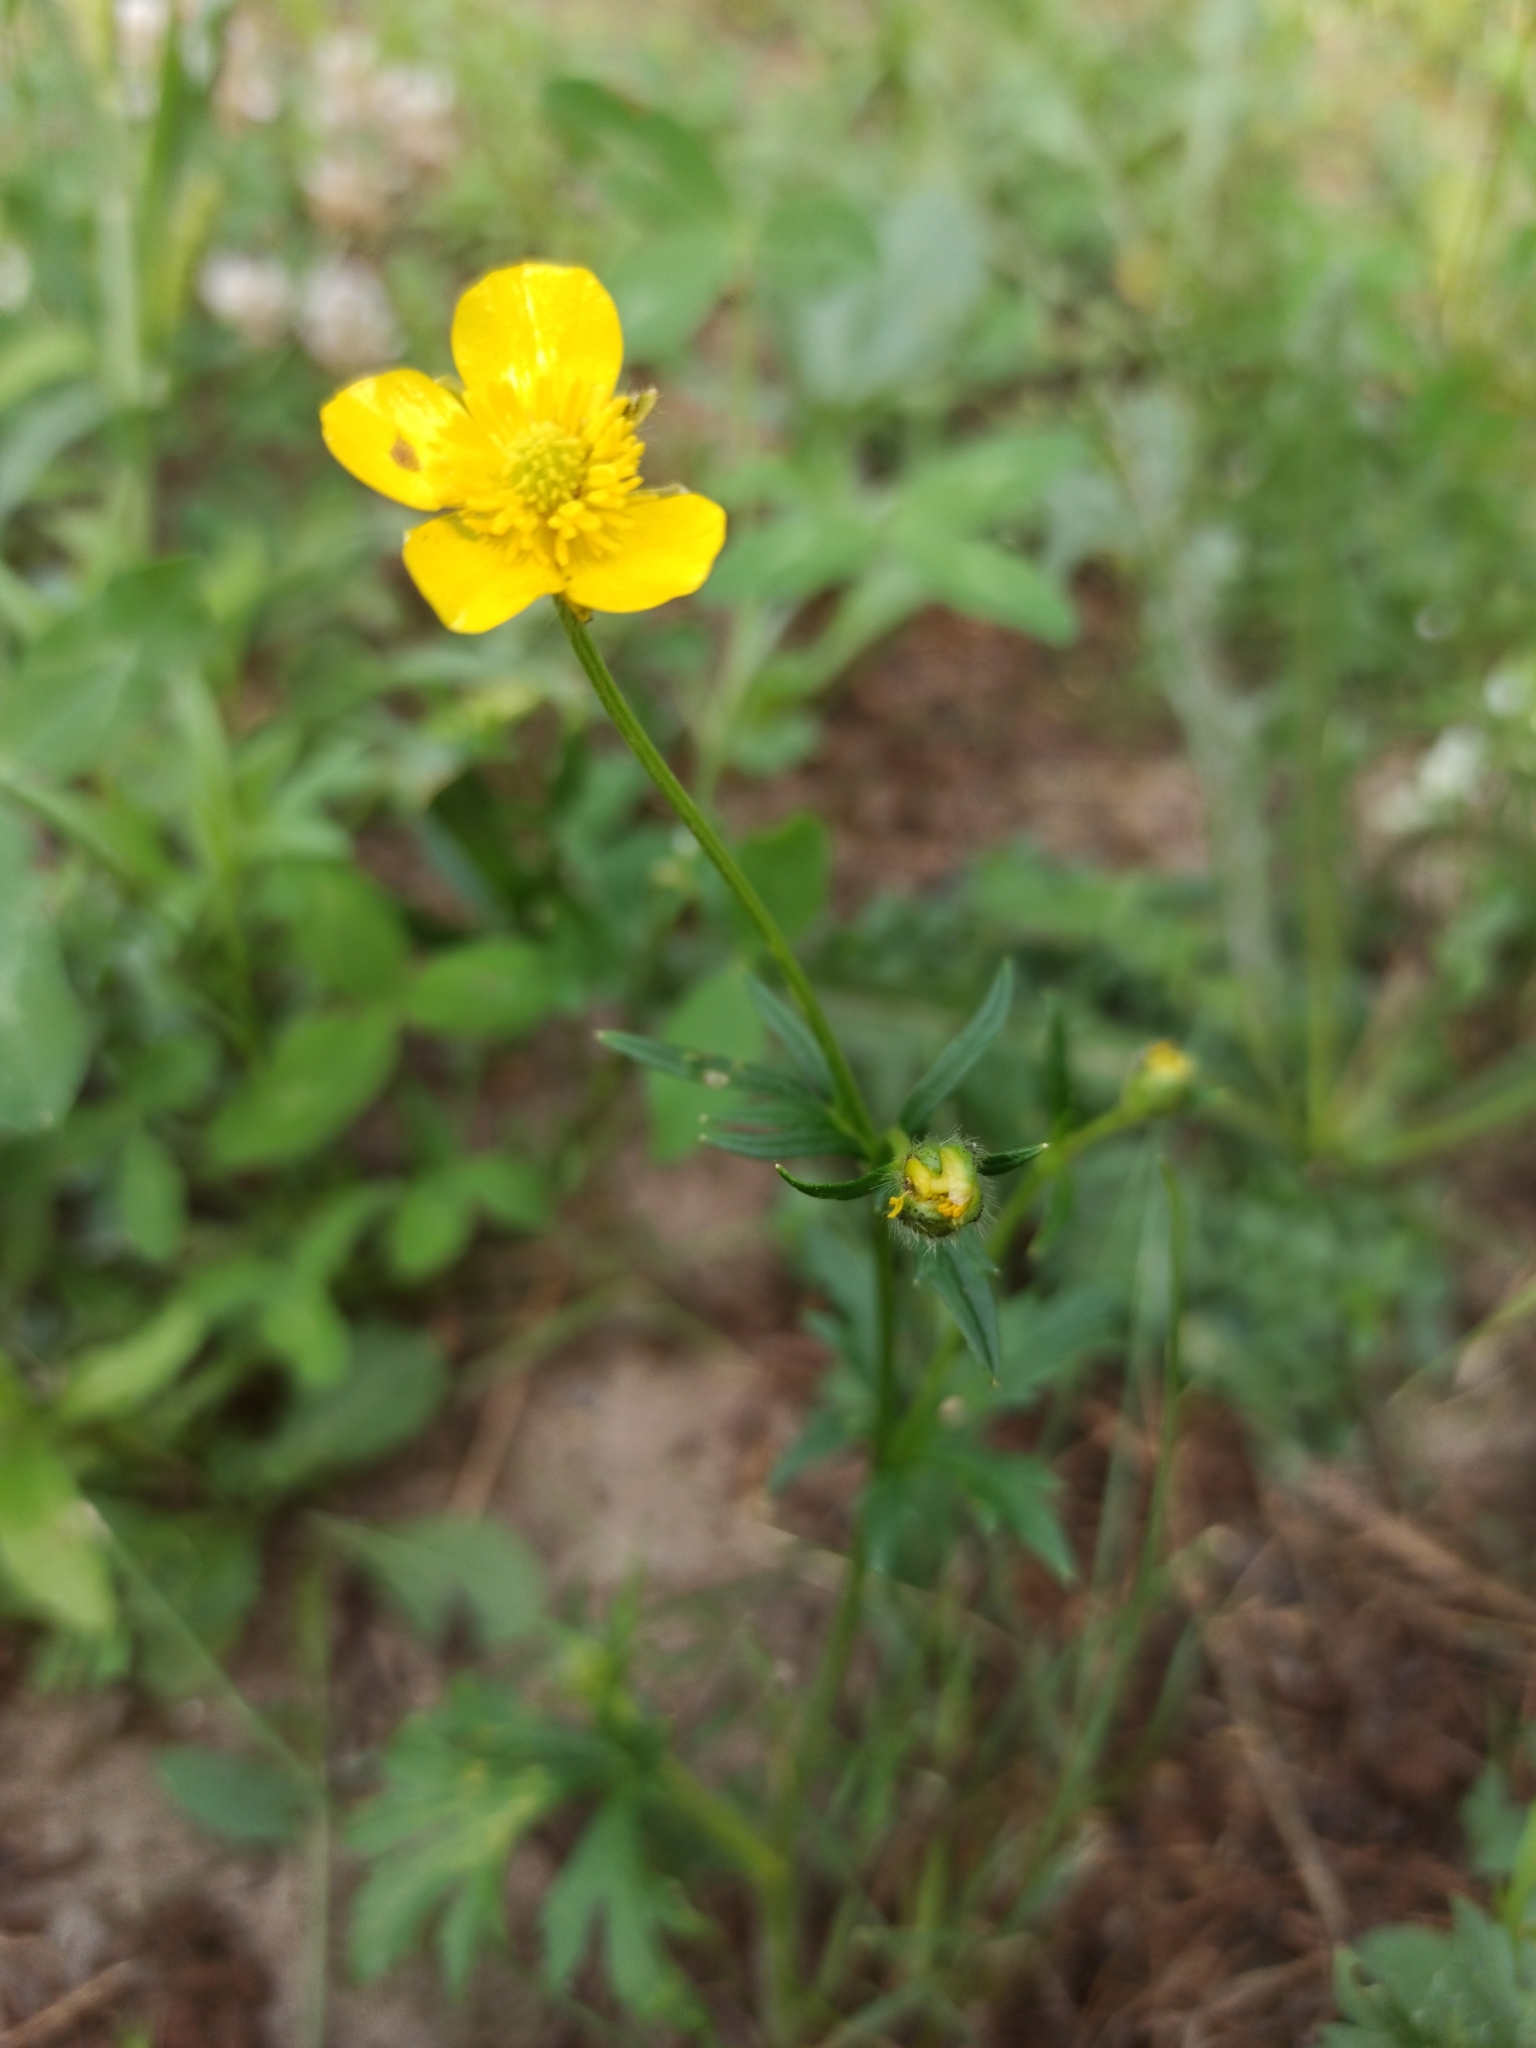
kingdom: Plantae
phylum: Tracheophyta
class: Magnoliopsida
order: Ranunculales
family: Ranunculaceae
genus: Ranunculus
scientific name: Ranunculus polyanthemos
